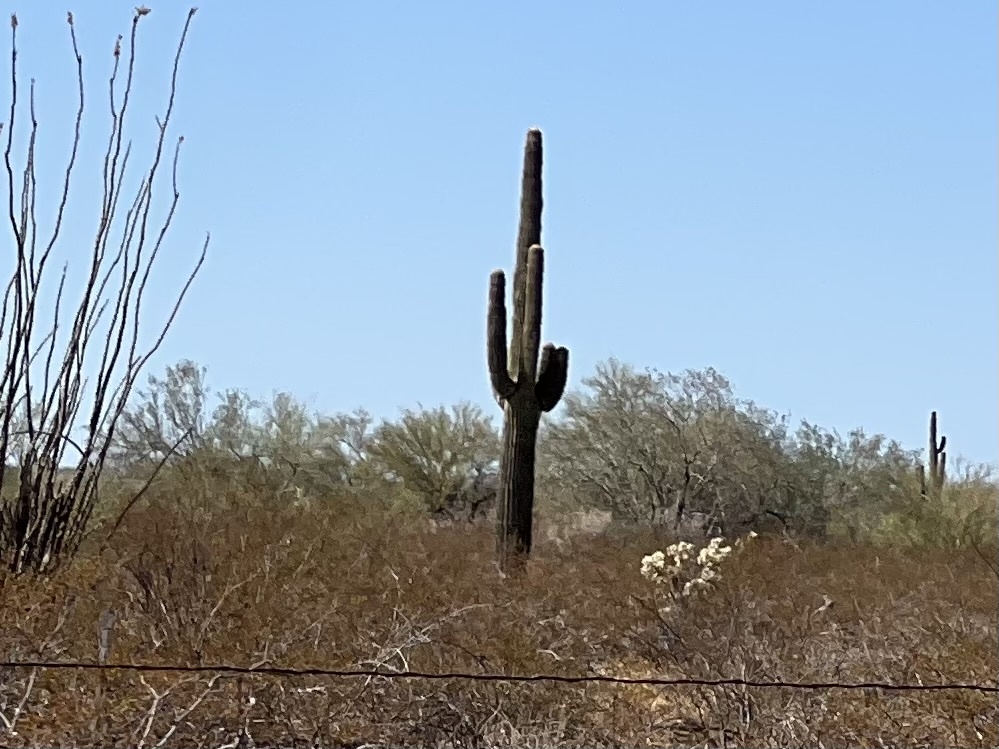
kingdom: Plantae
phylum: Tracheophyta
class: Magnoliopsida
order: Caryophyllales
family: Cactaceae
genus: Carnegiea
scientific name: Carnegiea gigantea
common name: Saguaro
